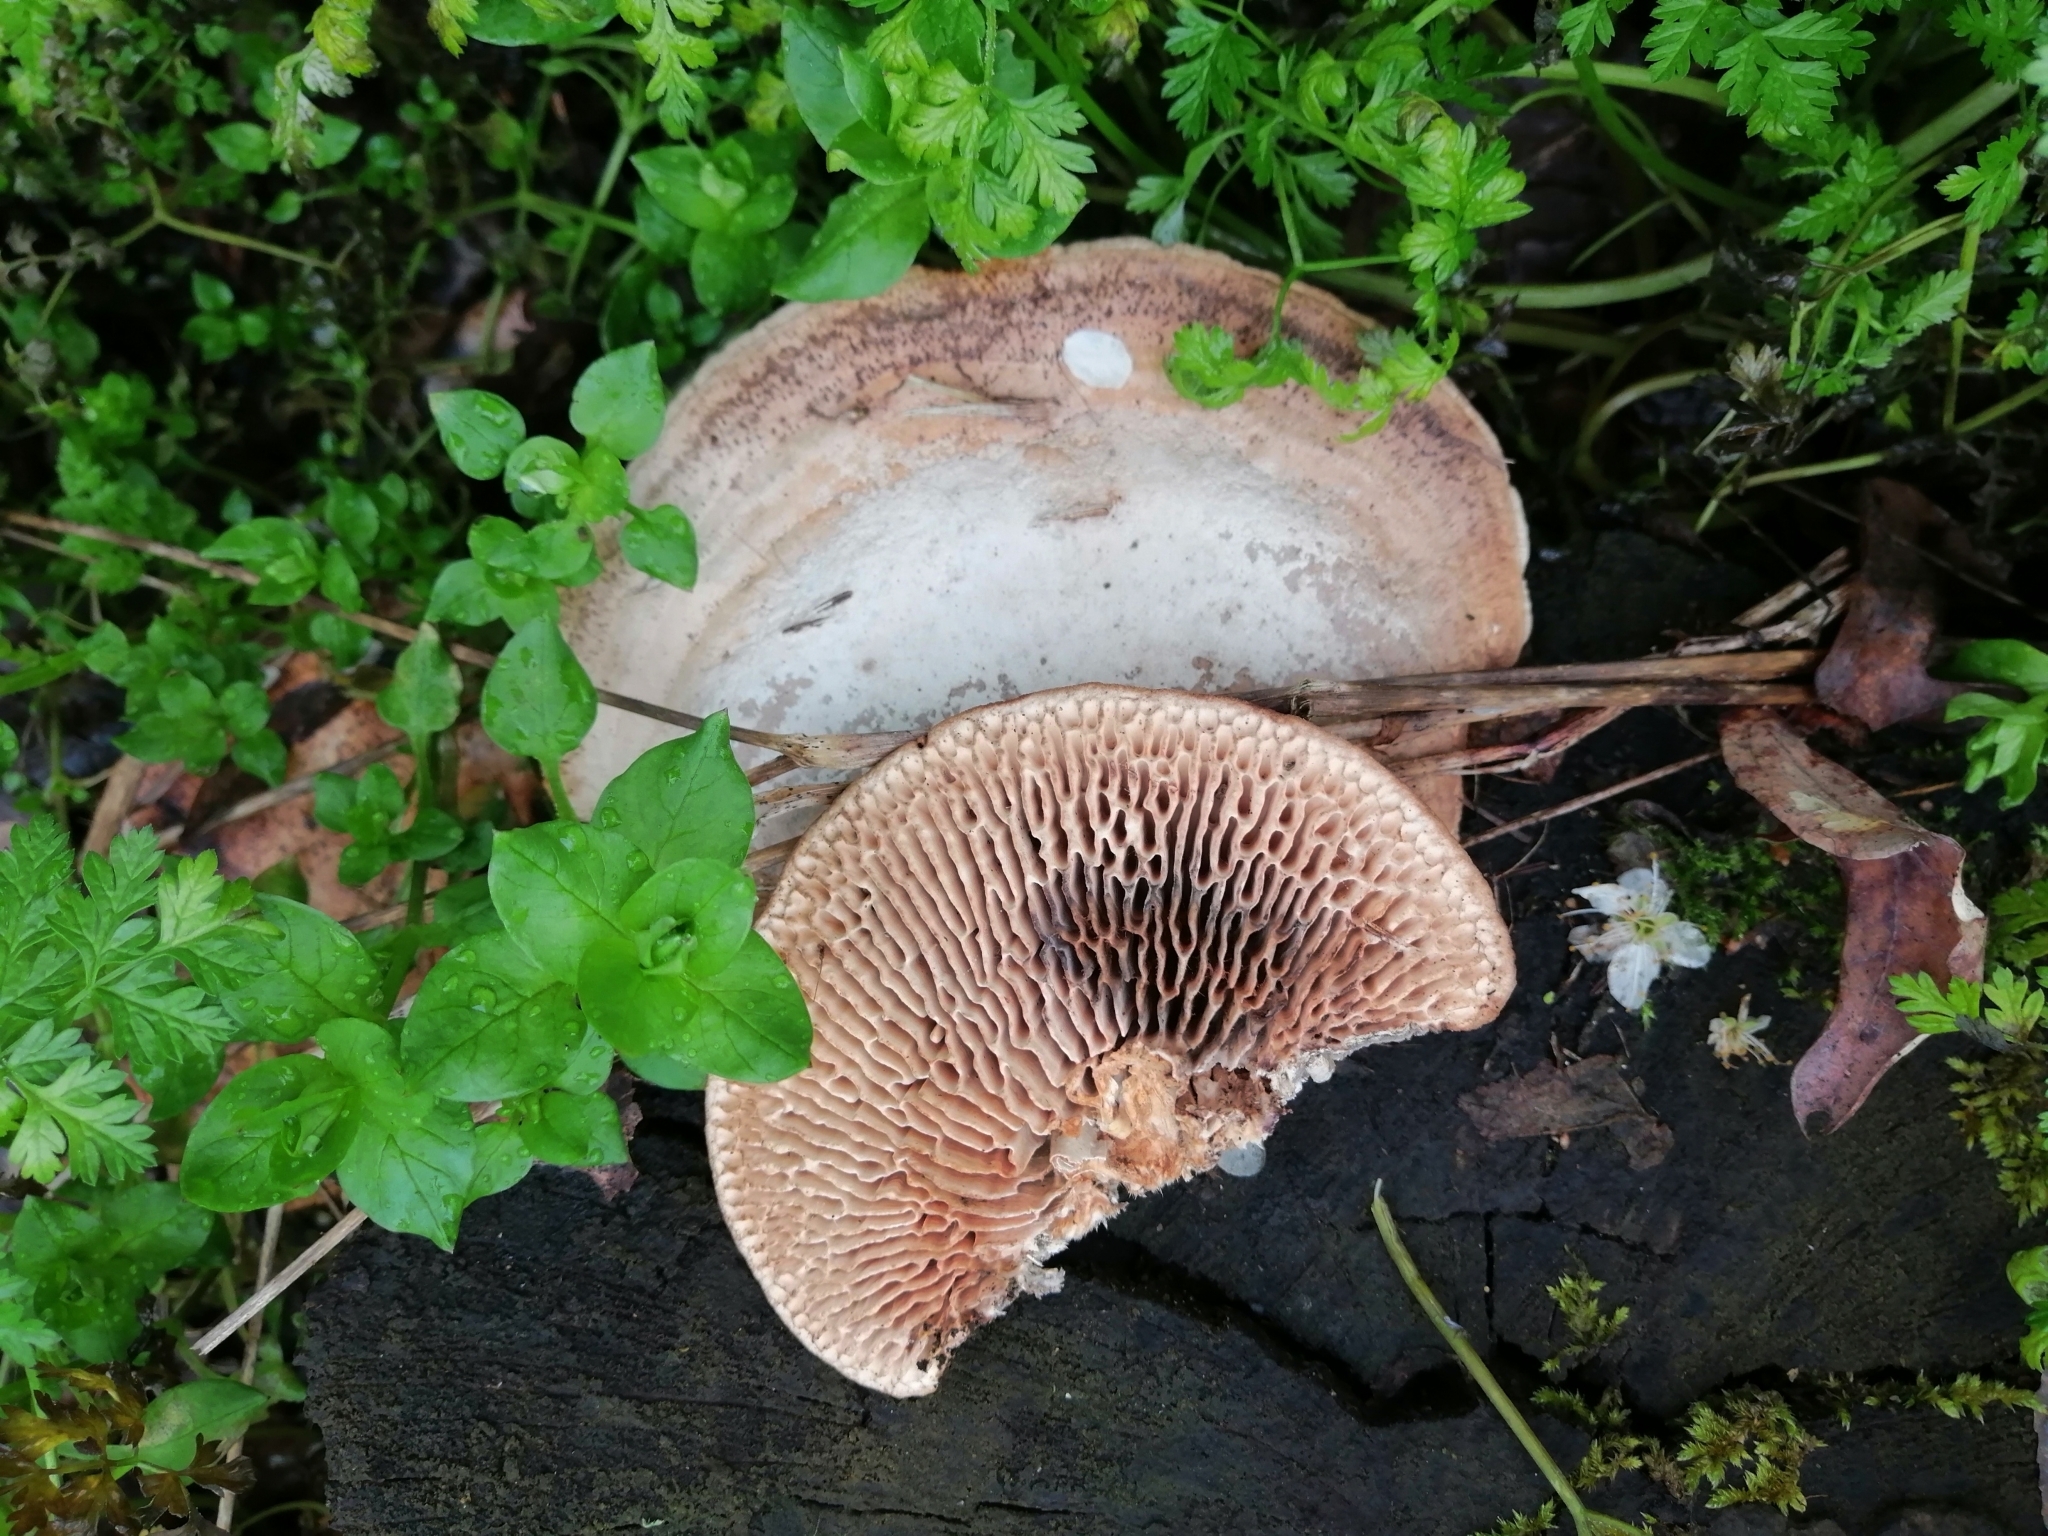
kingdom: Fungi
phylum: Basidiomycota
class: Agaricomycetes
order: Polyporales
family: Fomitopsidaceae
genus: Fomitopsis
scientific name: Fomitopsis
